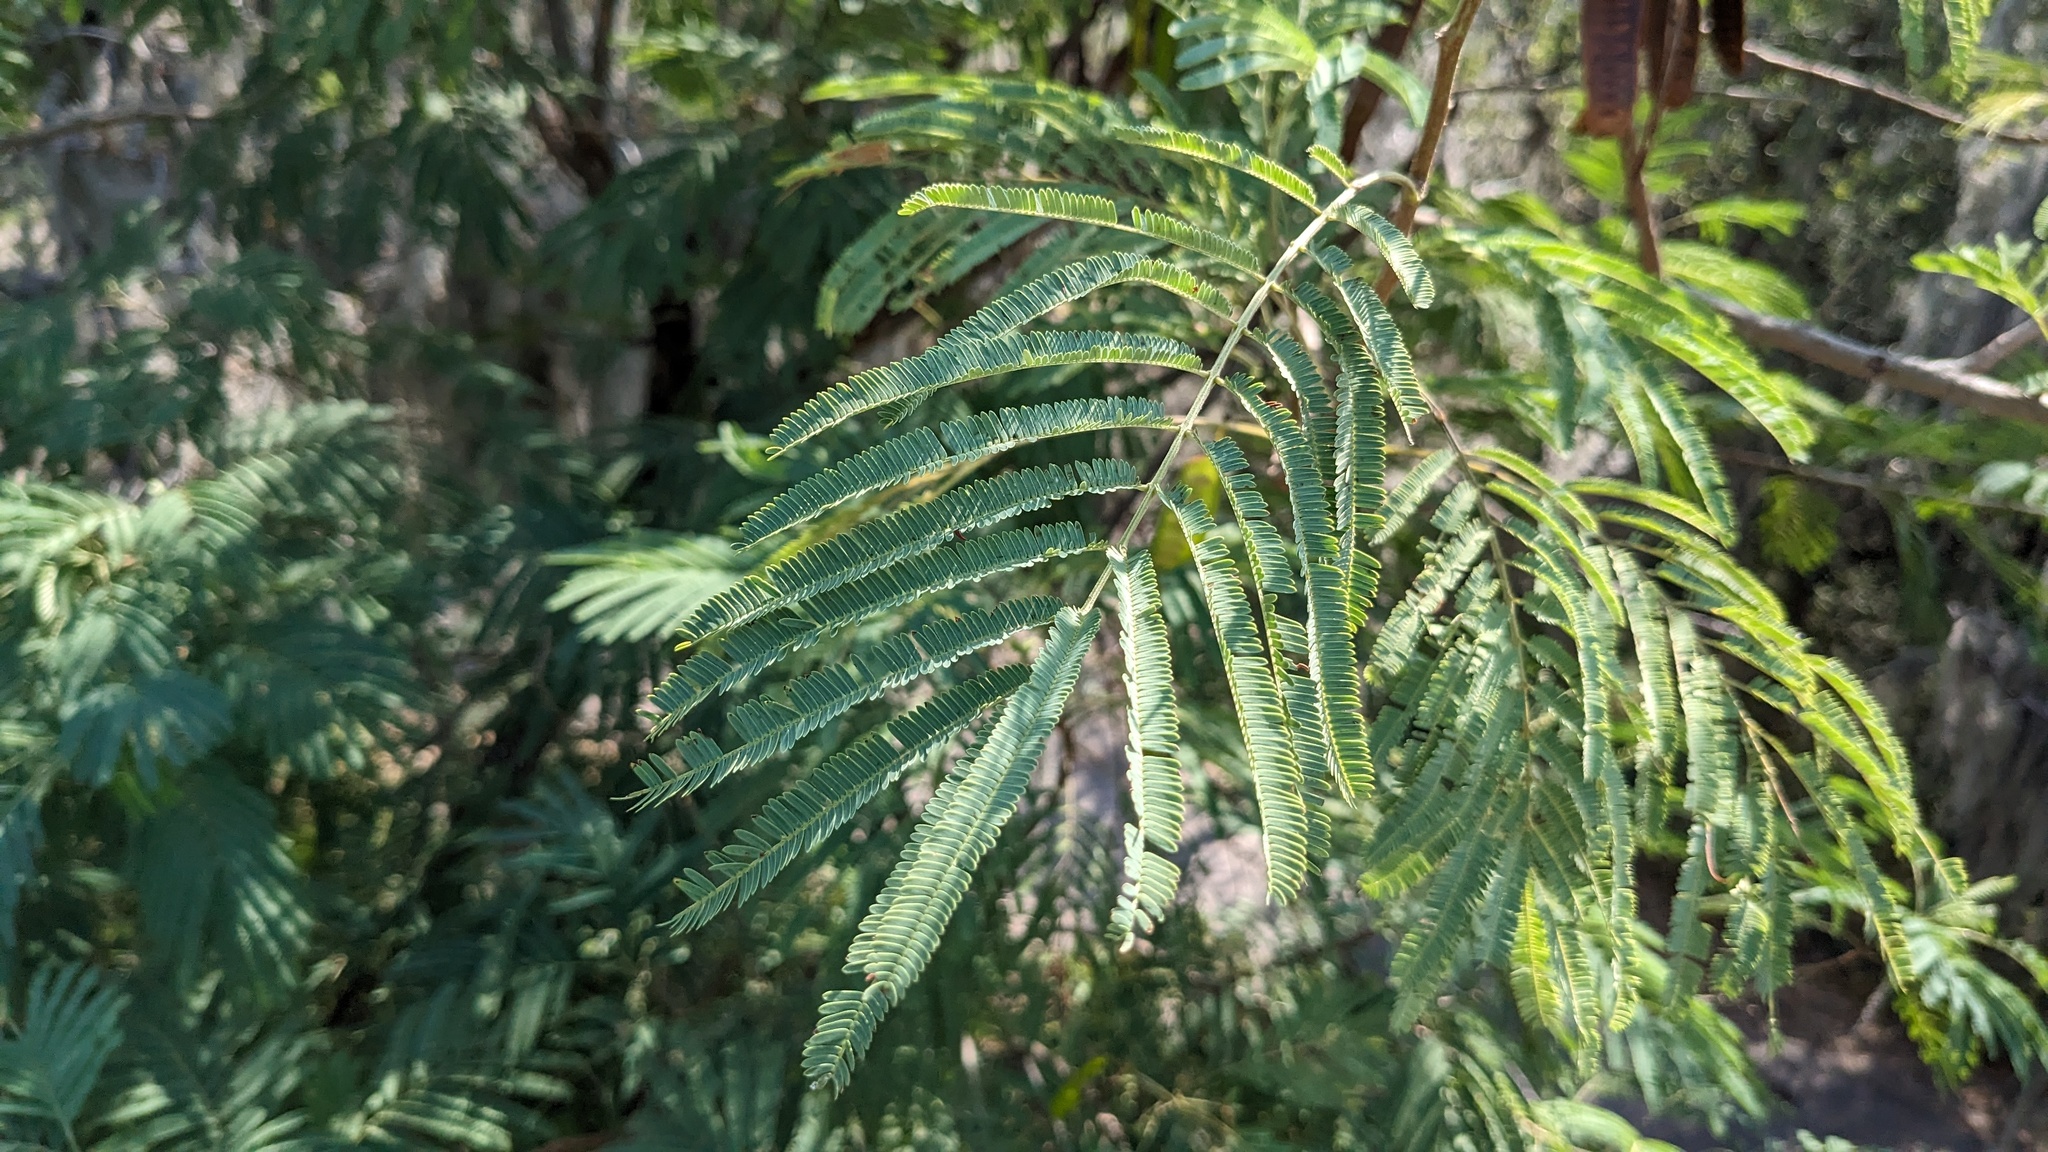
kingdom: Plantae
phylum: Tracheophyta
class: Magnoliopsida
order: Fabales
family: Fabaceae
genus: Leucaena
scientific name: Leucaena pulverulenta
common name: Great leadtree
